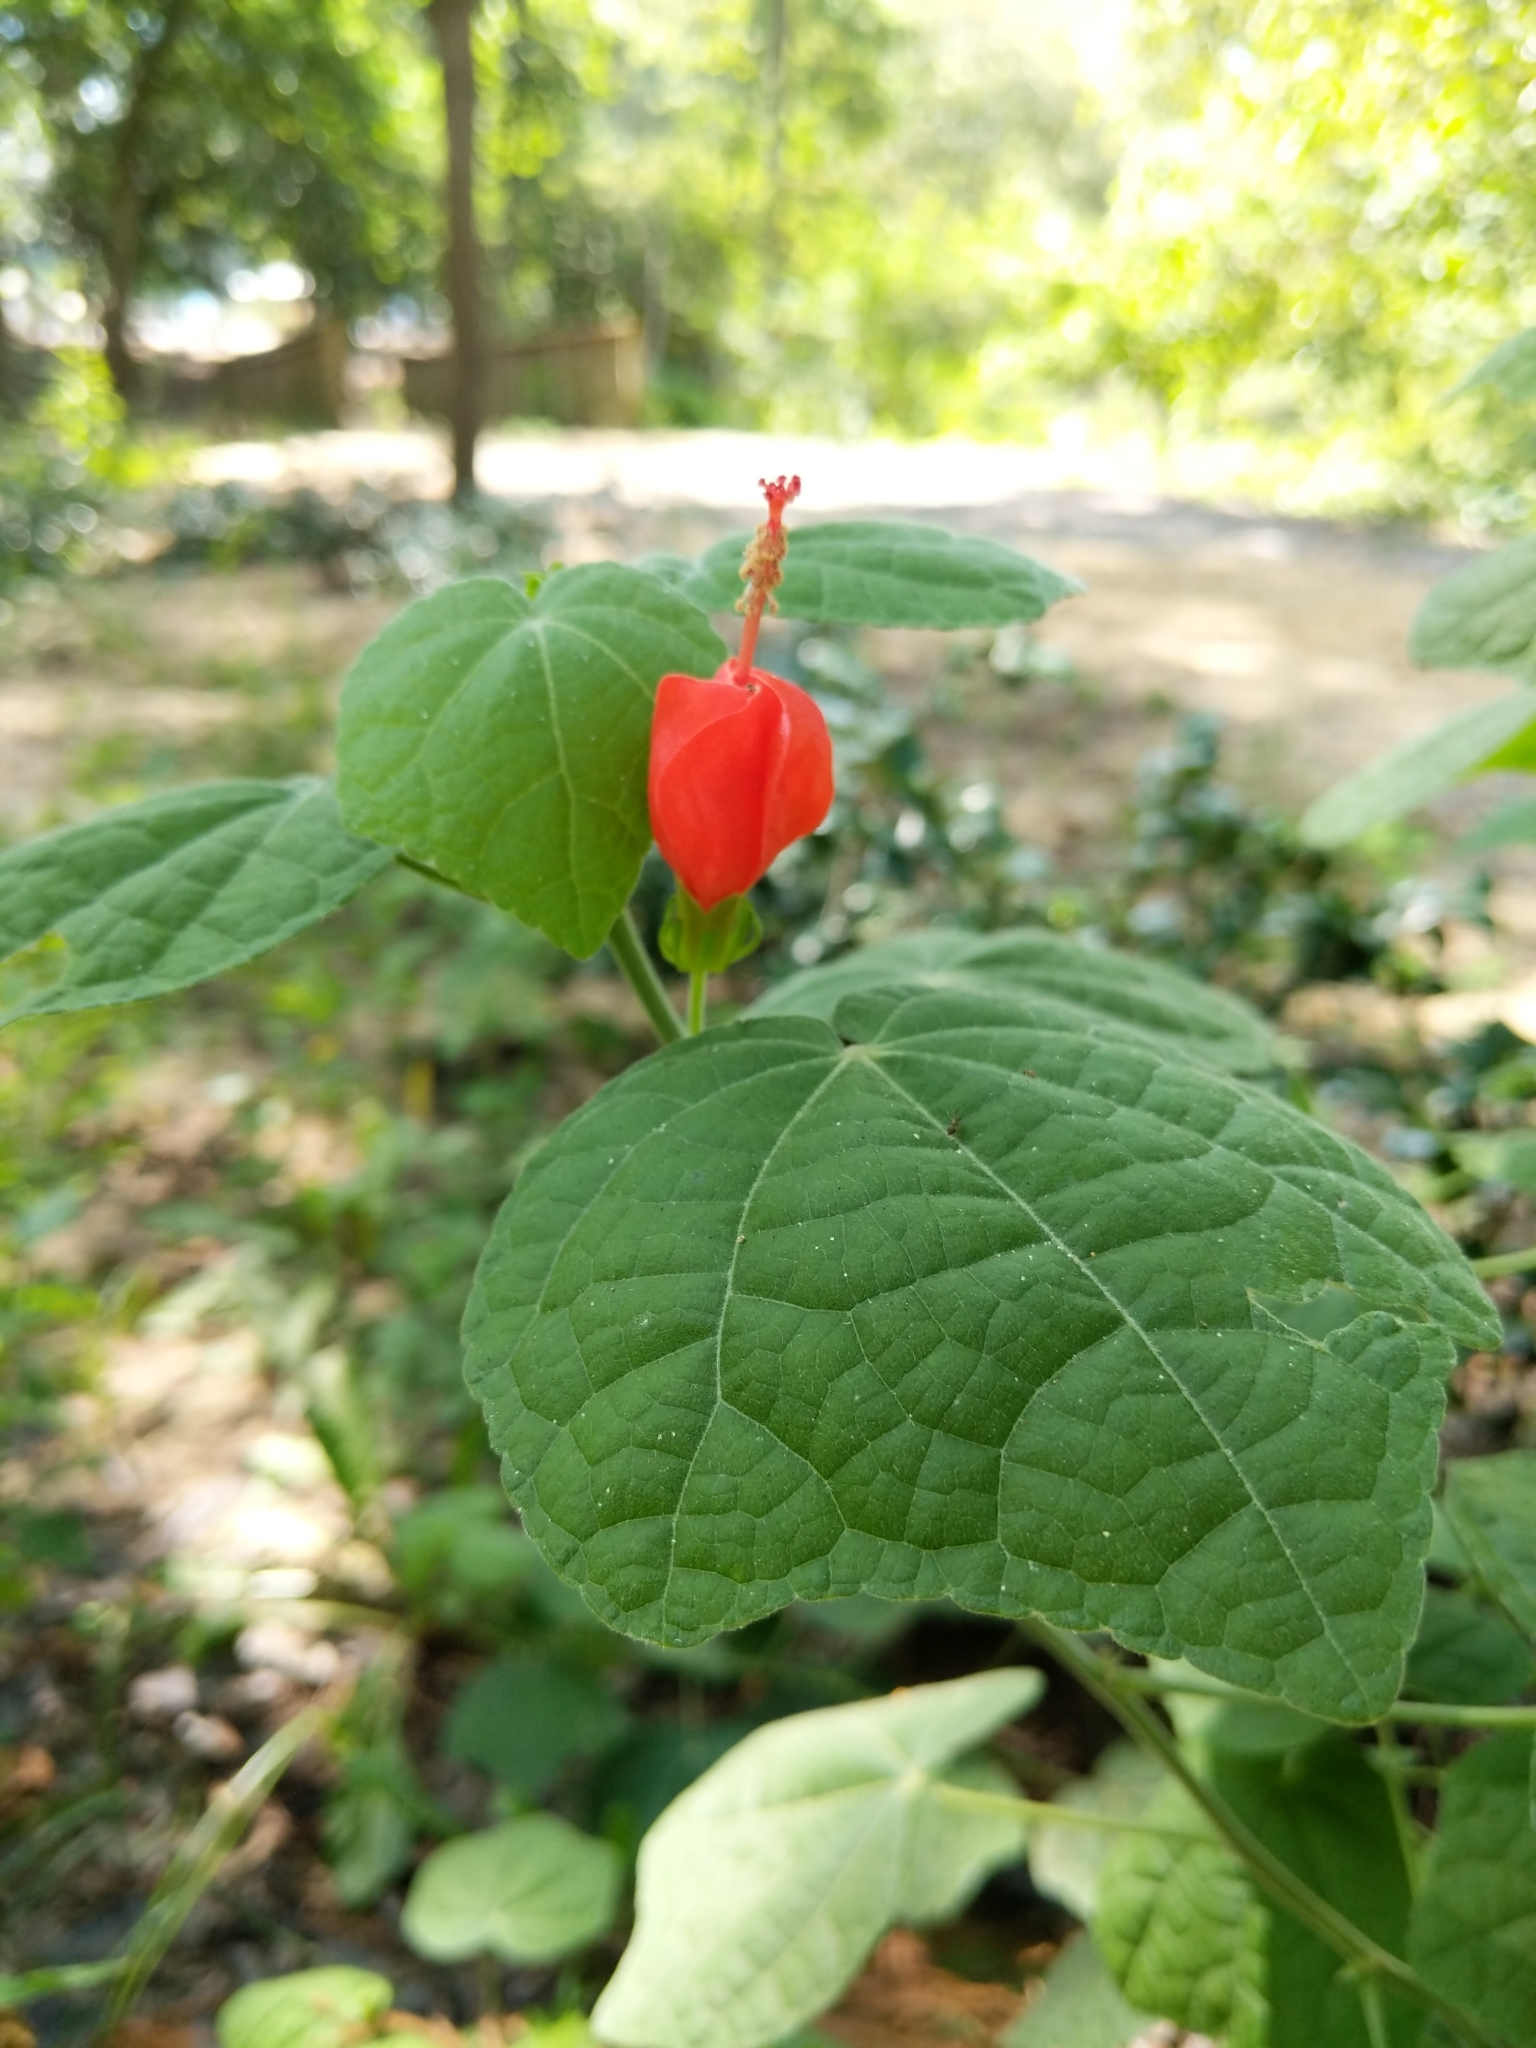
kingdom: Plantae
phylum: Tracheophyta
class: Magnoliopsida
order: Malvales
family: Malvaceae
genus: Malvaviscus
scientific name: Malvaviscus arboreus
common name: Wax mallow
